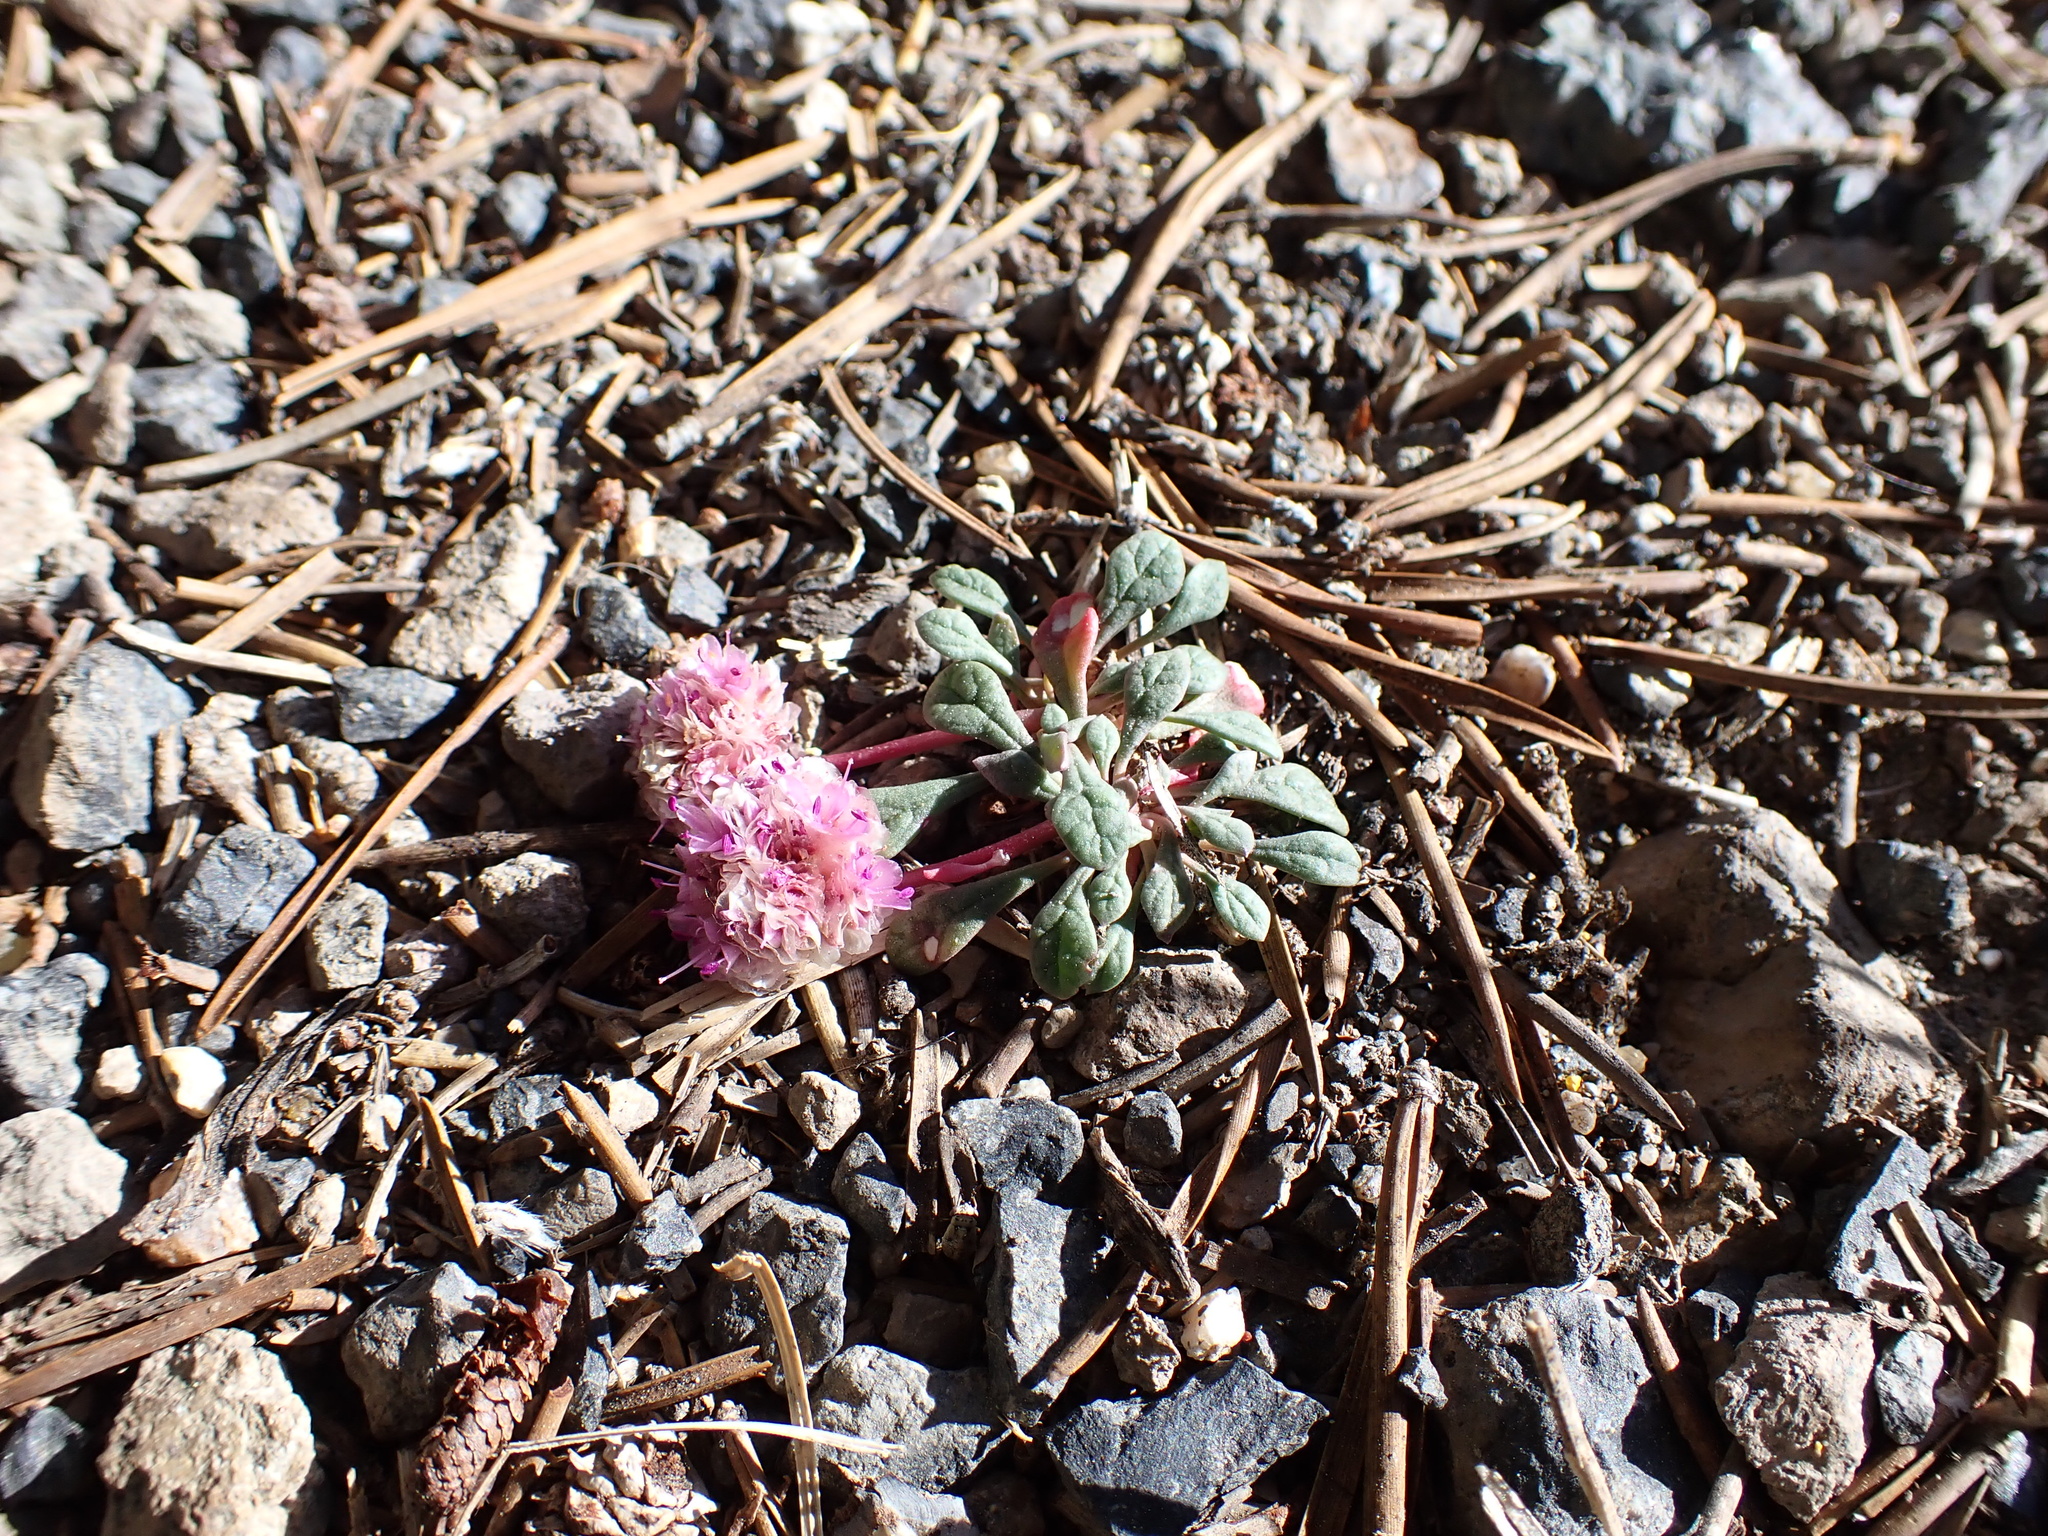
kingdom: Plantae
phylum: Tracheophyta
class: Magnoliopsida
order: Caryophyllales
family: Montiaceae
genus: Calyptridium
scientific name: Calyptridium umbellatum
